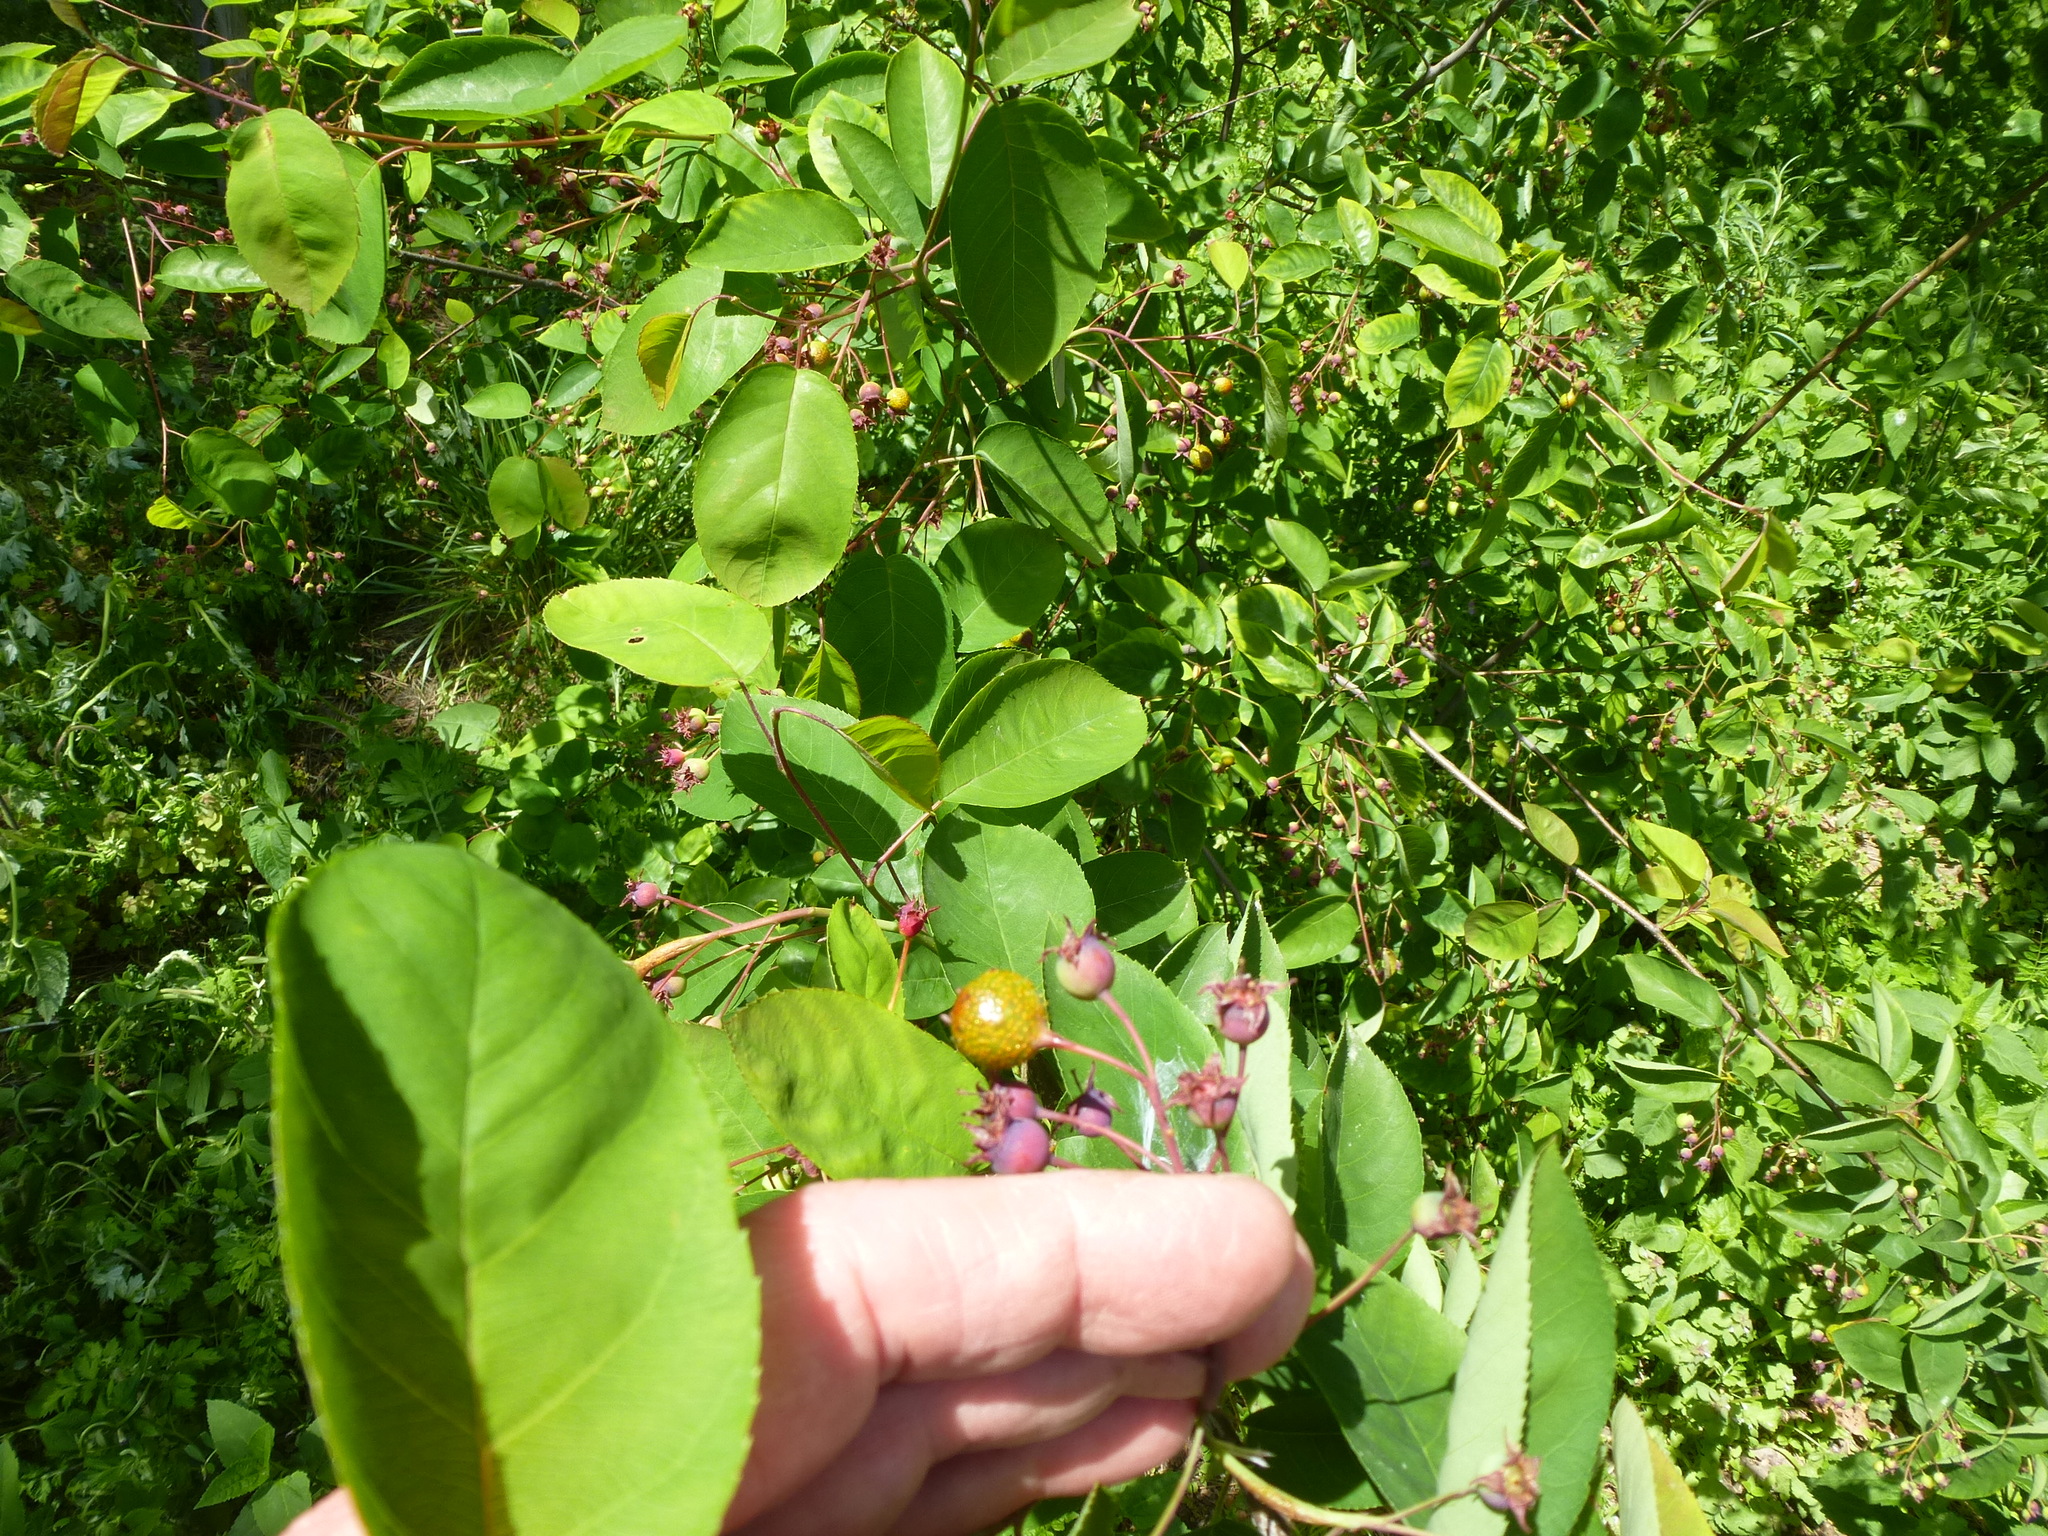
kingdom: Plantae
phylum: Tracheophyta
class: Magnoliopsida
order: Rosales
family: Rosaceae
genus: Amelanchier
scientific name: Amelanchier arborea
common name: Downy serviceberry
